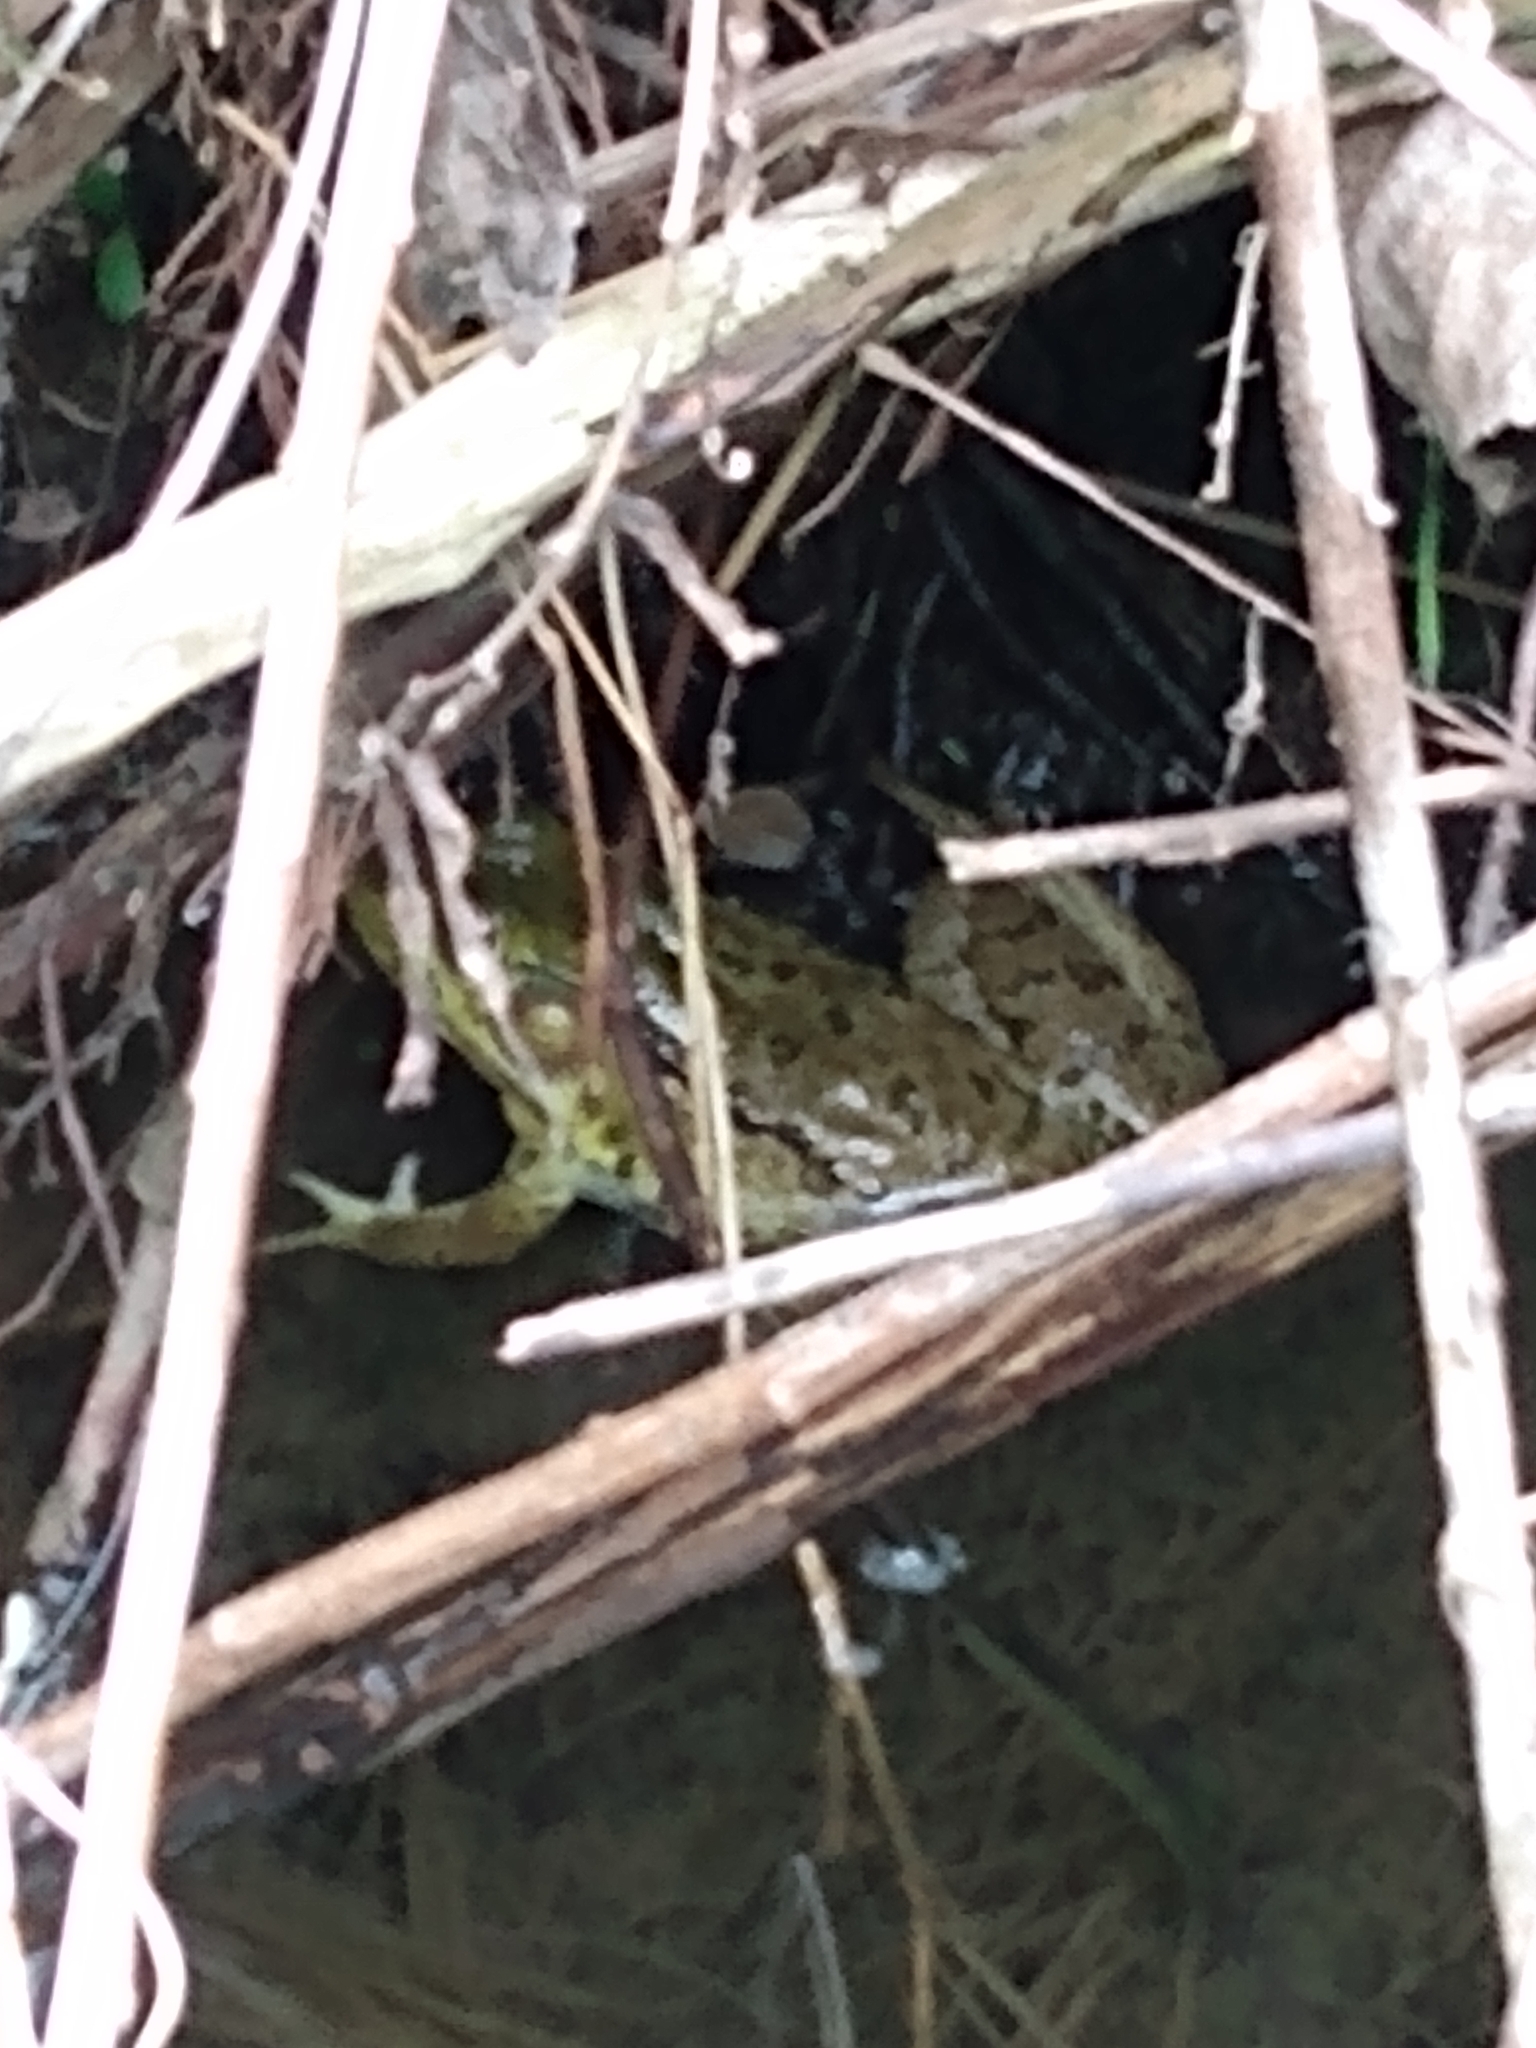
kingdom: Animalia
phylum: Chordata
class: Amphibia
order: Anura
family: Ranidae
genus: Lithobates
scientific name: Lithobates clamitans
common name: Green frog
